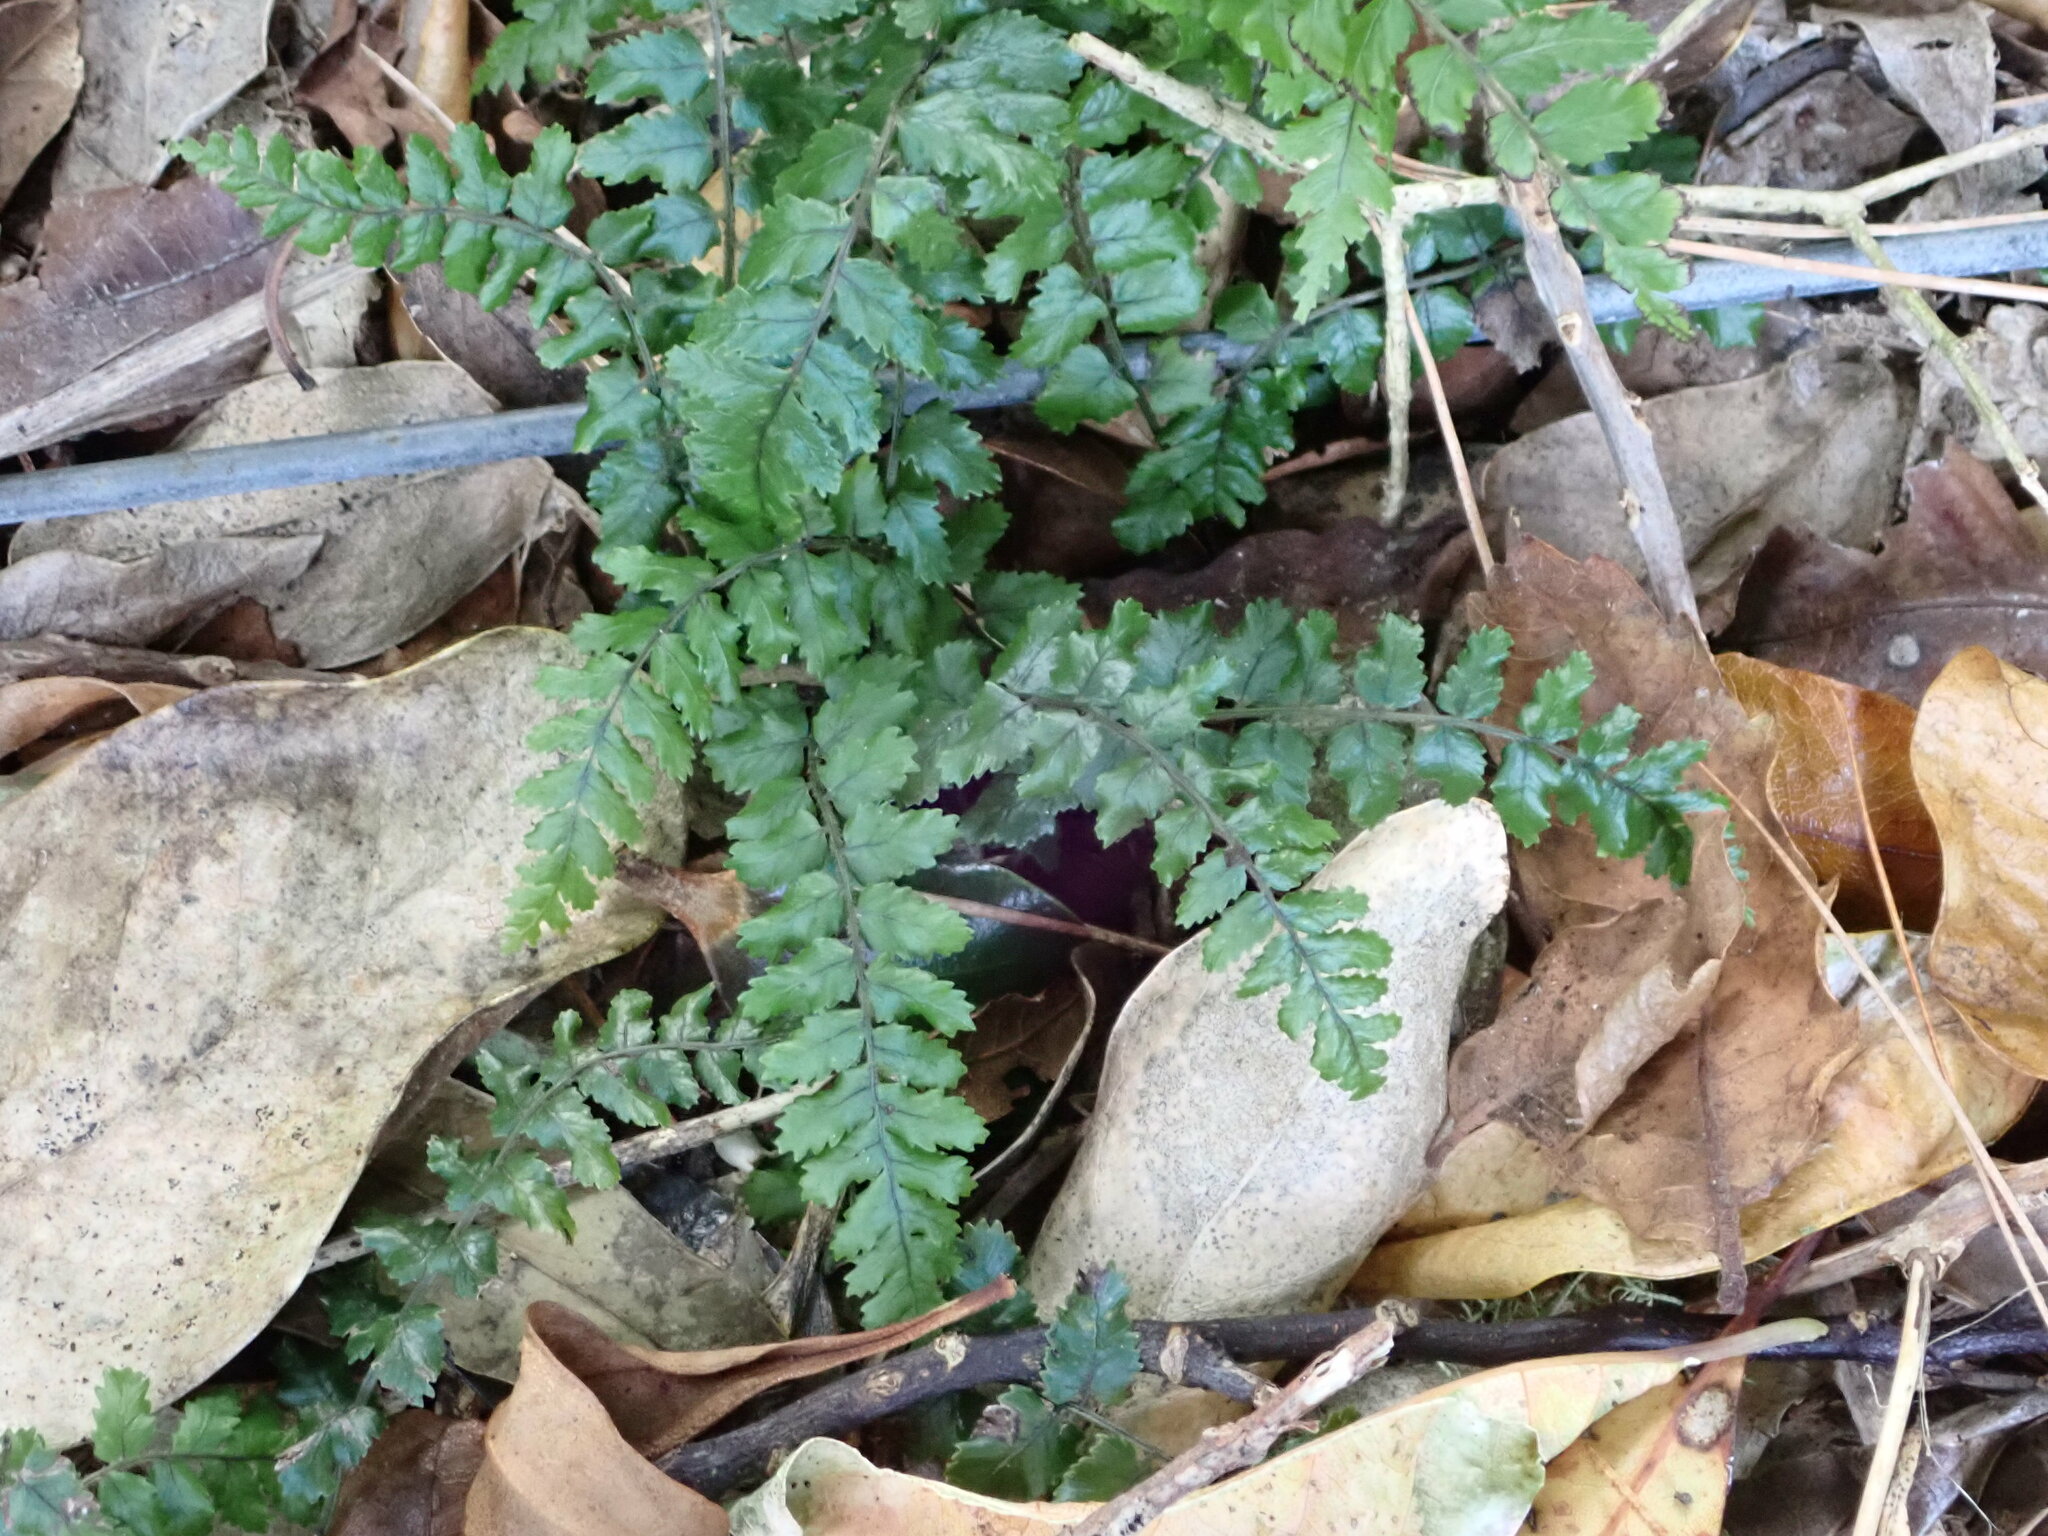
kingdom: Plantae
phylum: Tracheophyta
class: Polypodiopsida
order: Polypodiales
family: Blechnaceae
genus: Icarus
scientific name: Icarus filiformis
